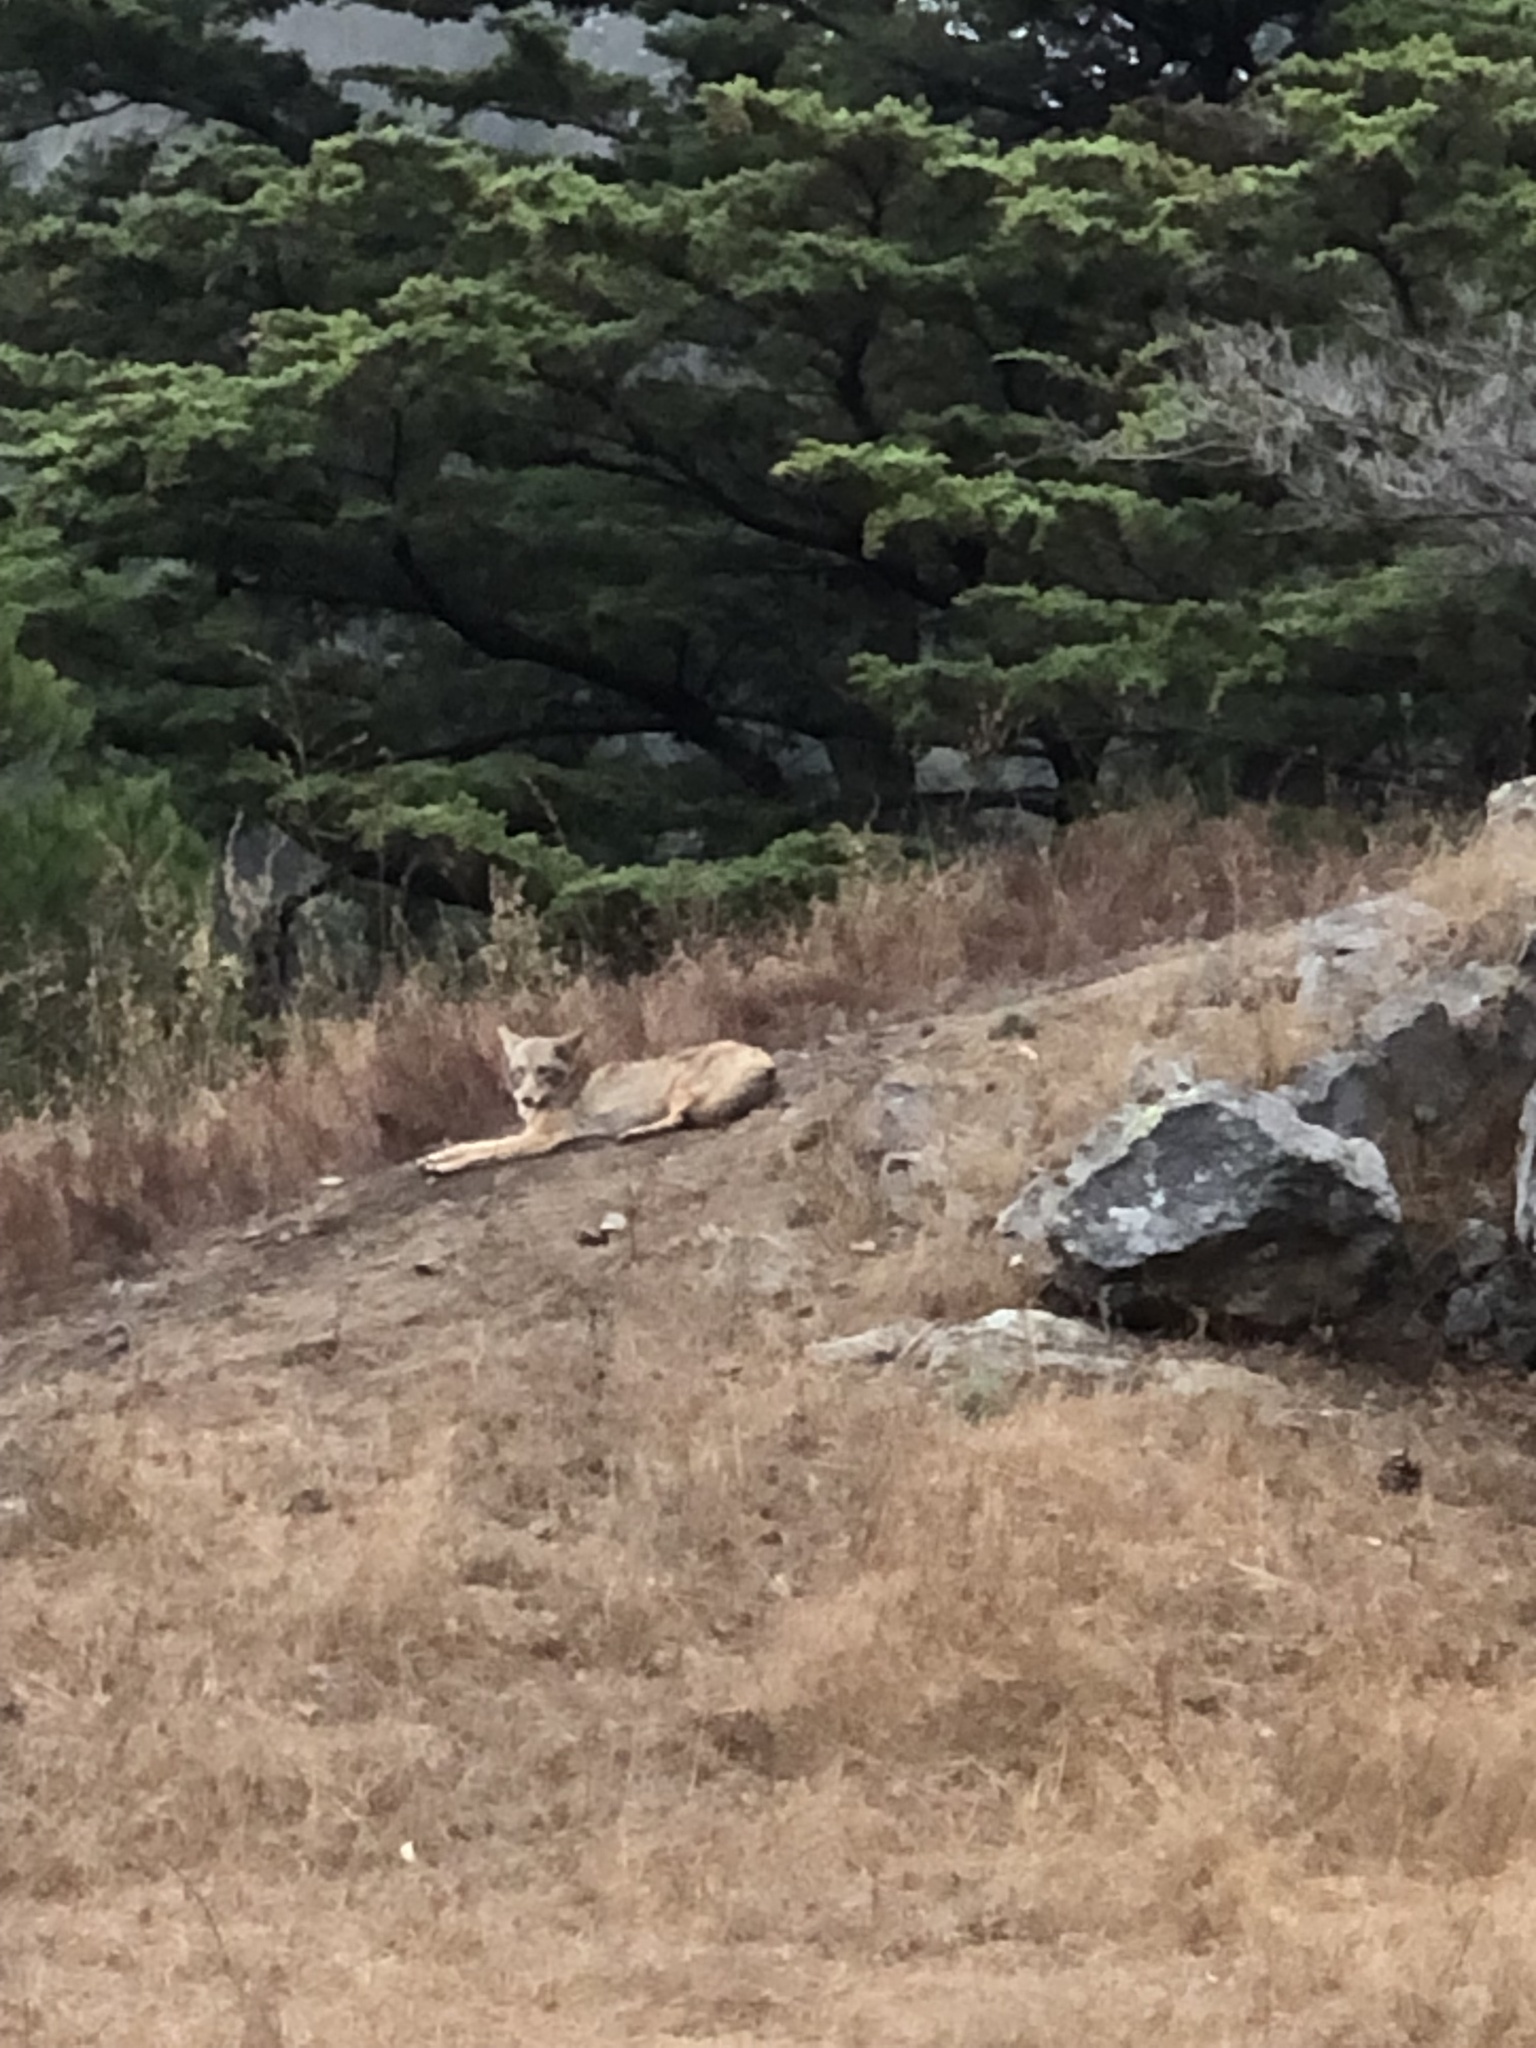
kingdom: Animalia
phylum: Chordata
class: Mammalia
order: Carnivora
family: Canidae
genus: Canis
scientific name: Canis latrans
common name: Coyote
